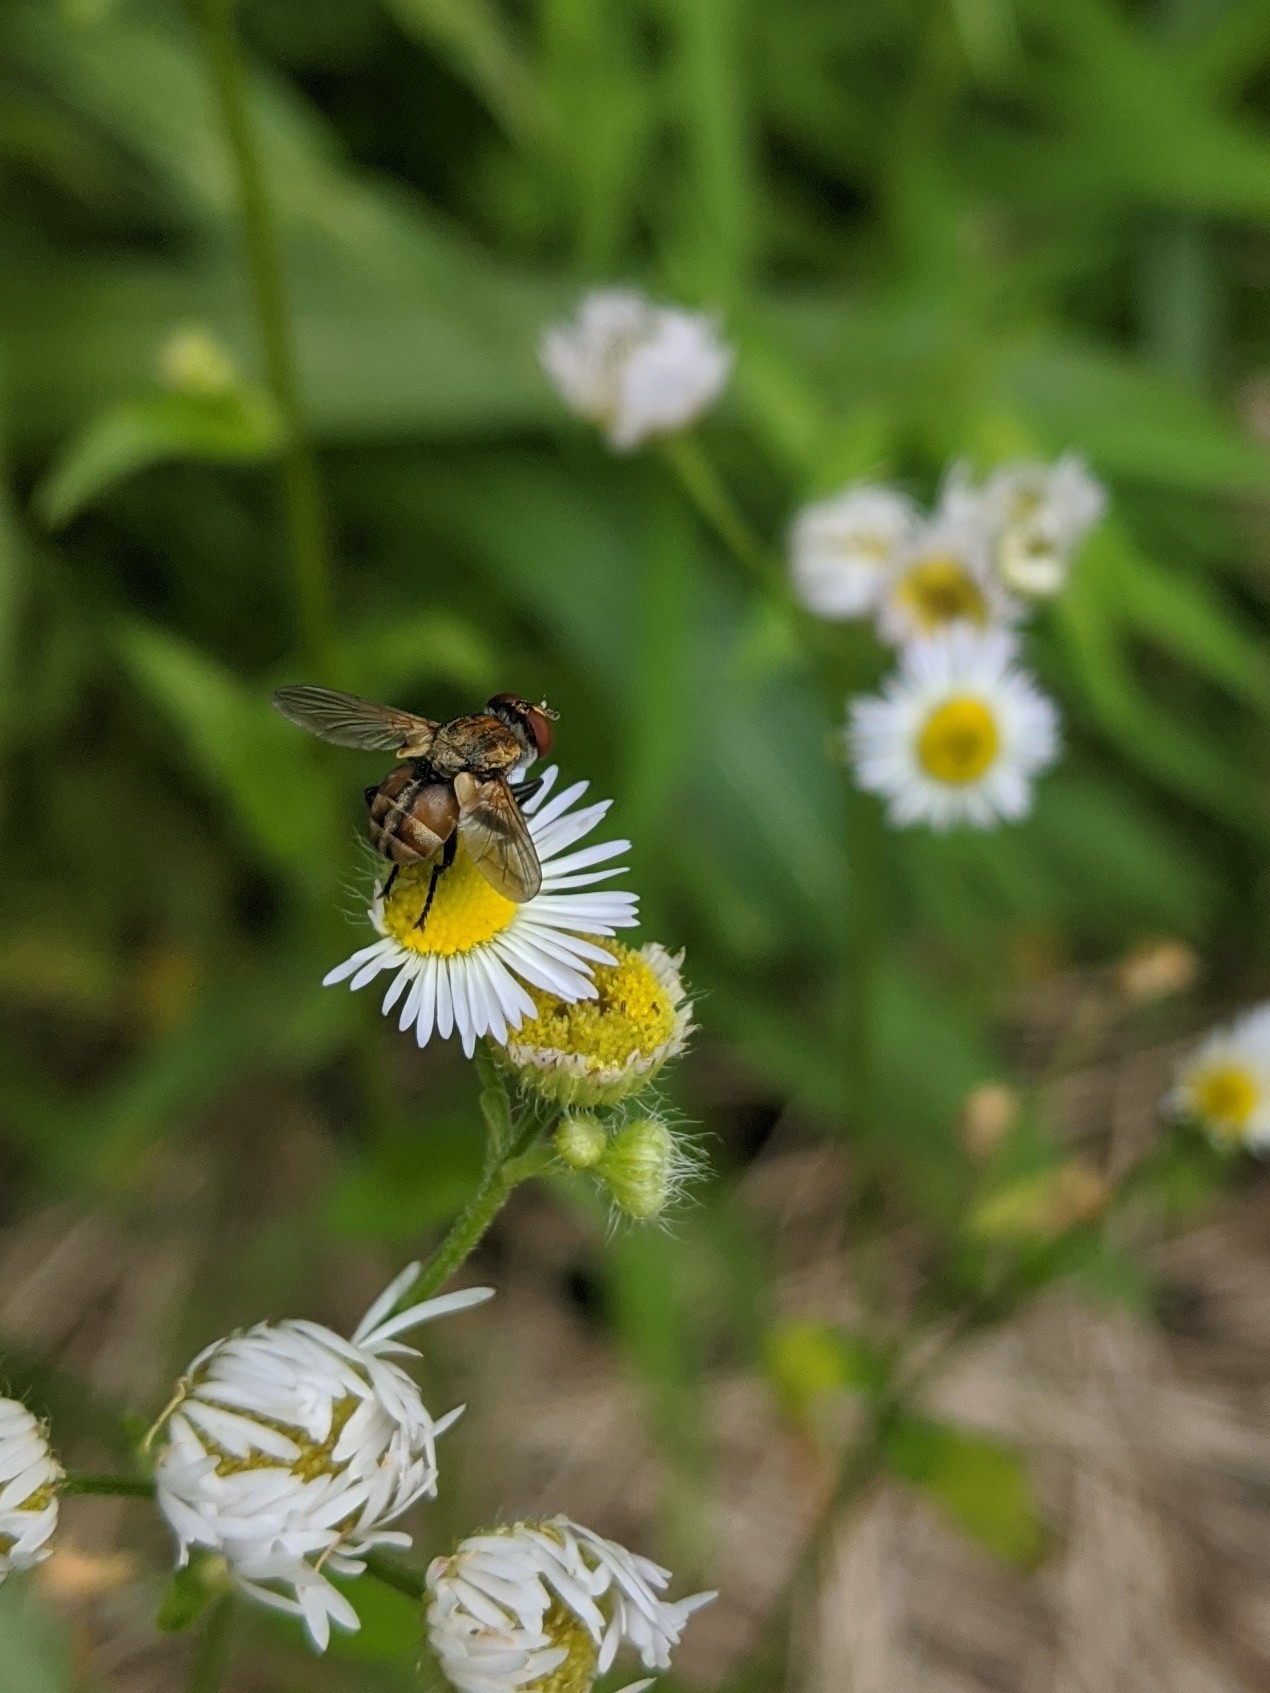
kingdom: Animalia
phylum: Arthropoda
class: Insecta
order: Diptera
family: Tachinidae
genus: Gymnoclytia
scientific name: Gymnoclytia occidua
